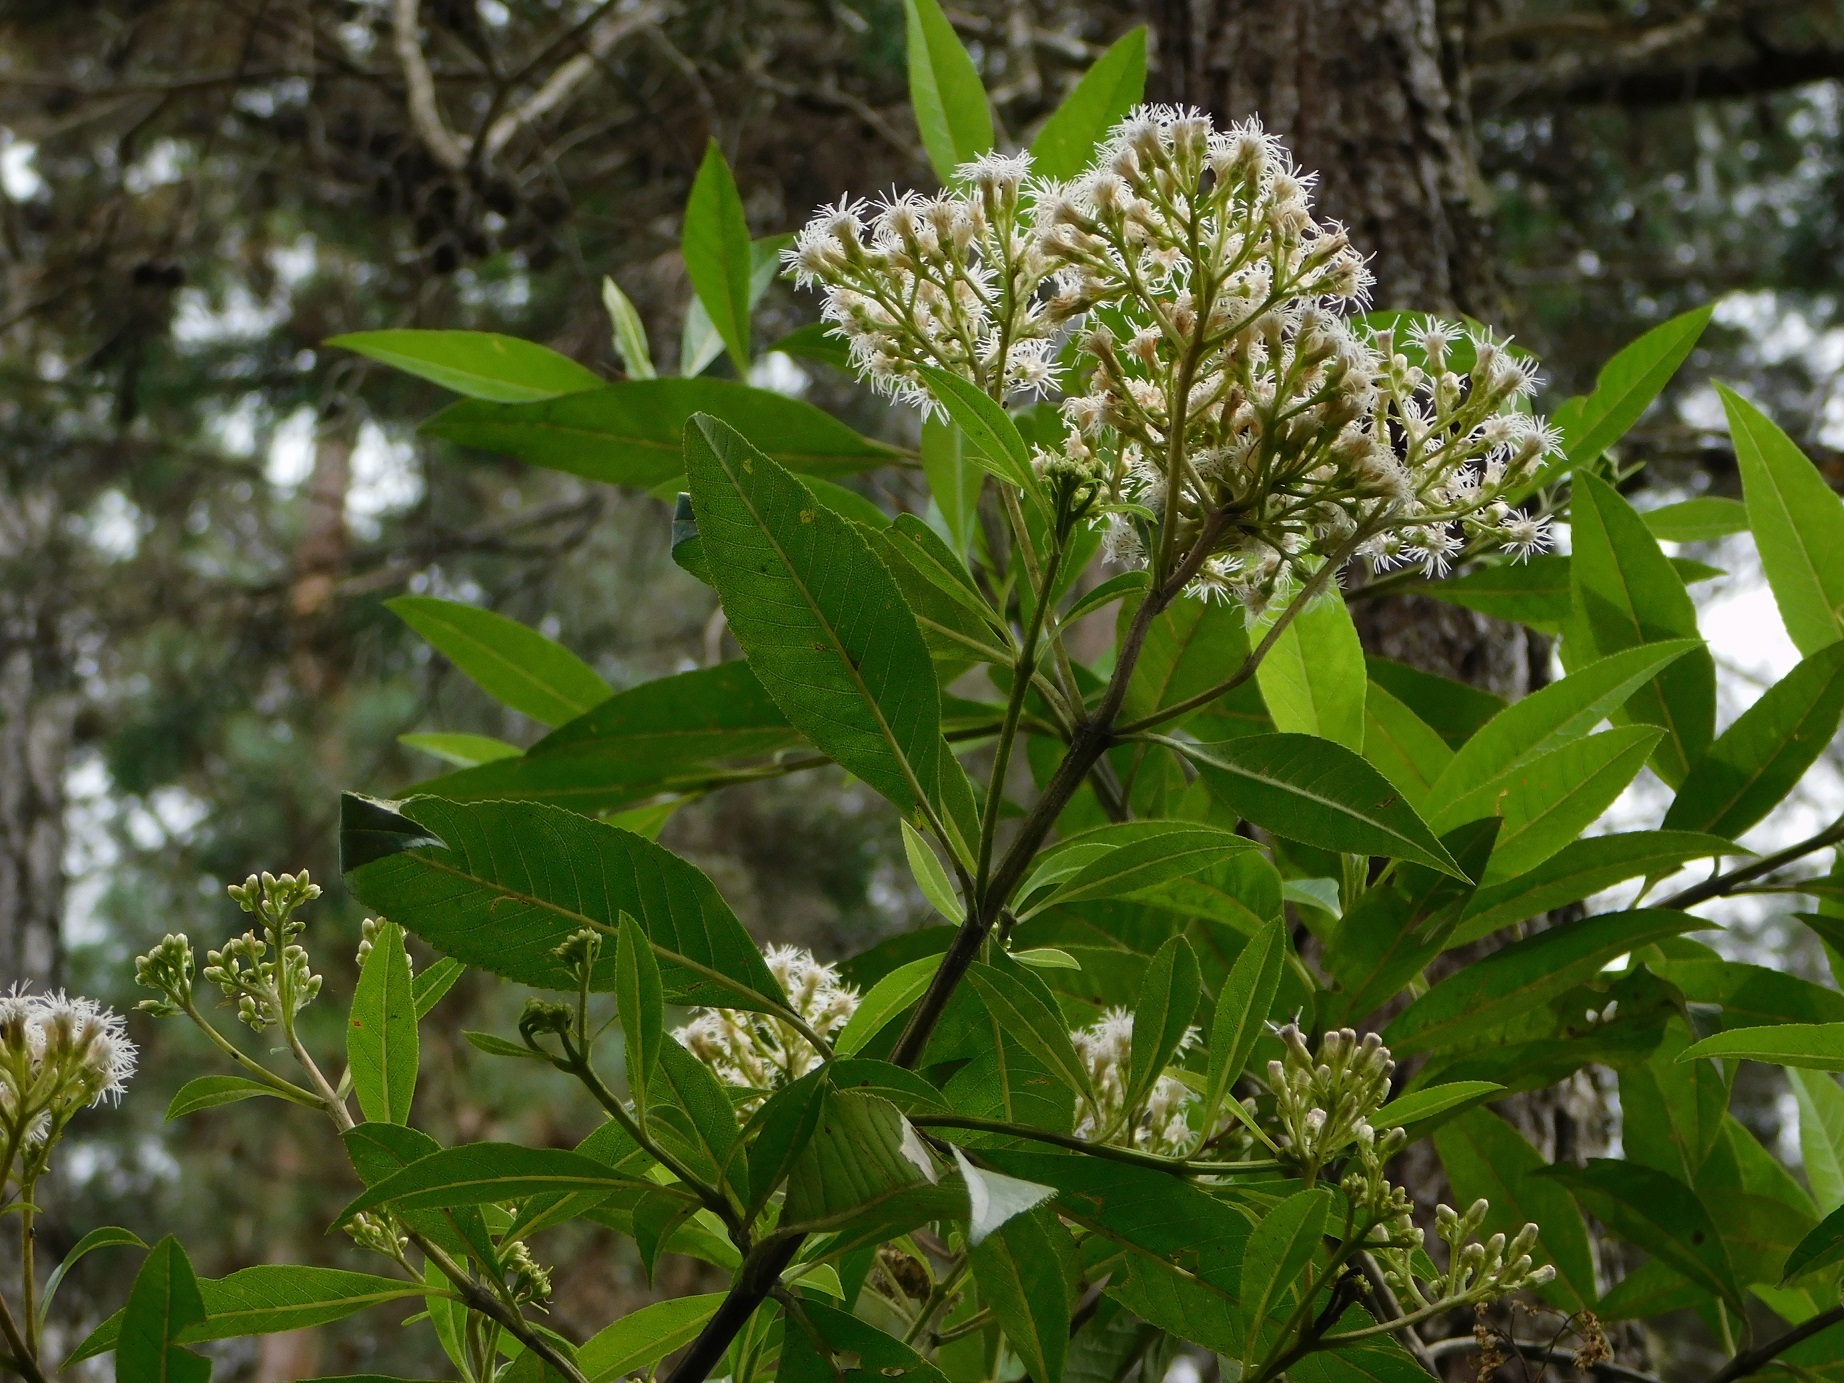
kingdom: Plantae
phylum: Tracheophyta
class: Magnoliopsida
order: Asterales
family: Asteraceae
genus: Ageratina
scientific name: Ageratina popayanensis
